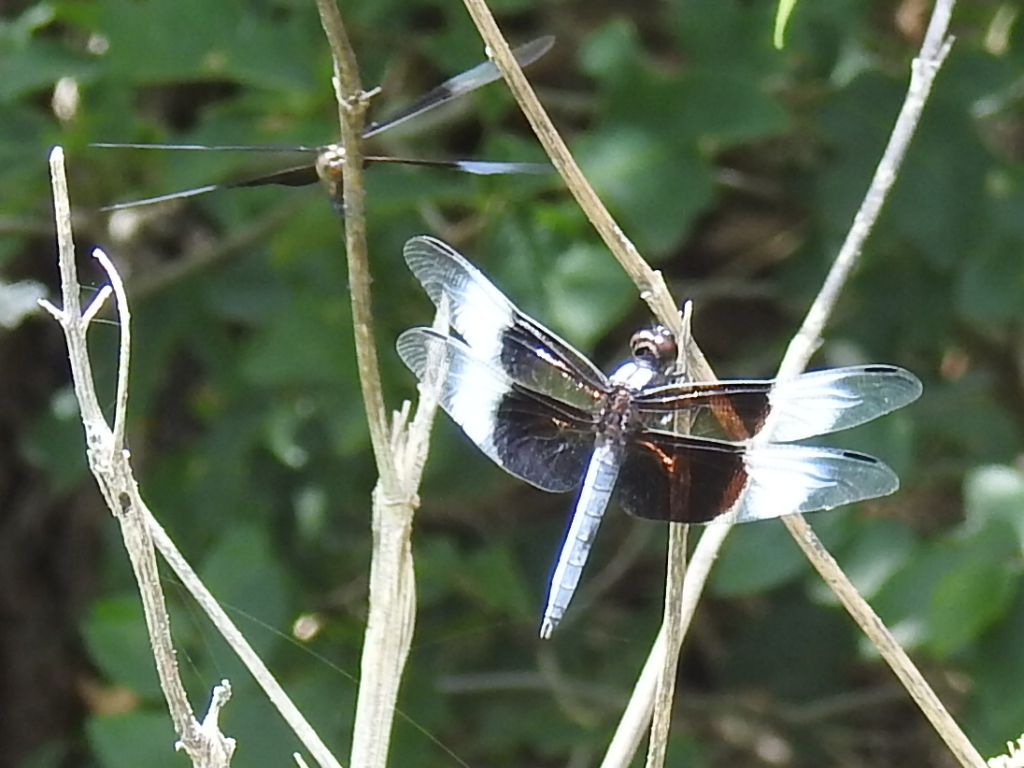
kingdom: Animalia
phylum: Arthropoda
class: Insecta
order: Odonata
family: Libellulidae
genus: Libellula
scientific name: Libellula luctuosa
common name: Widow skimmer
